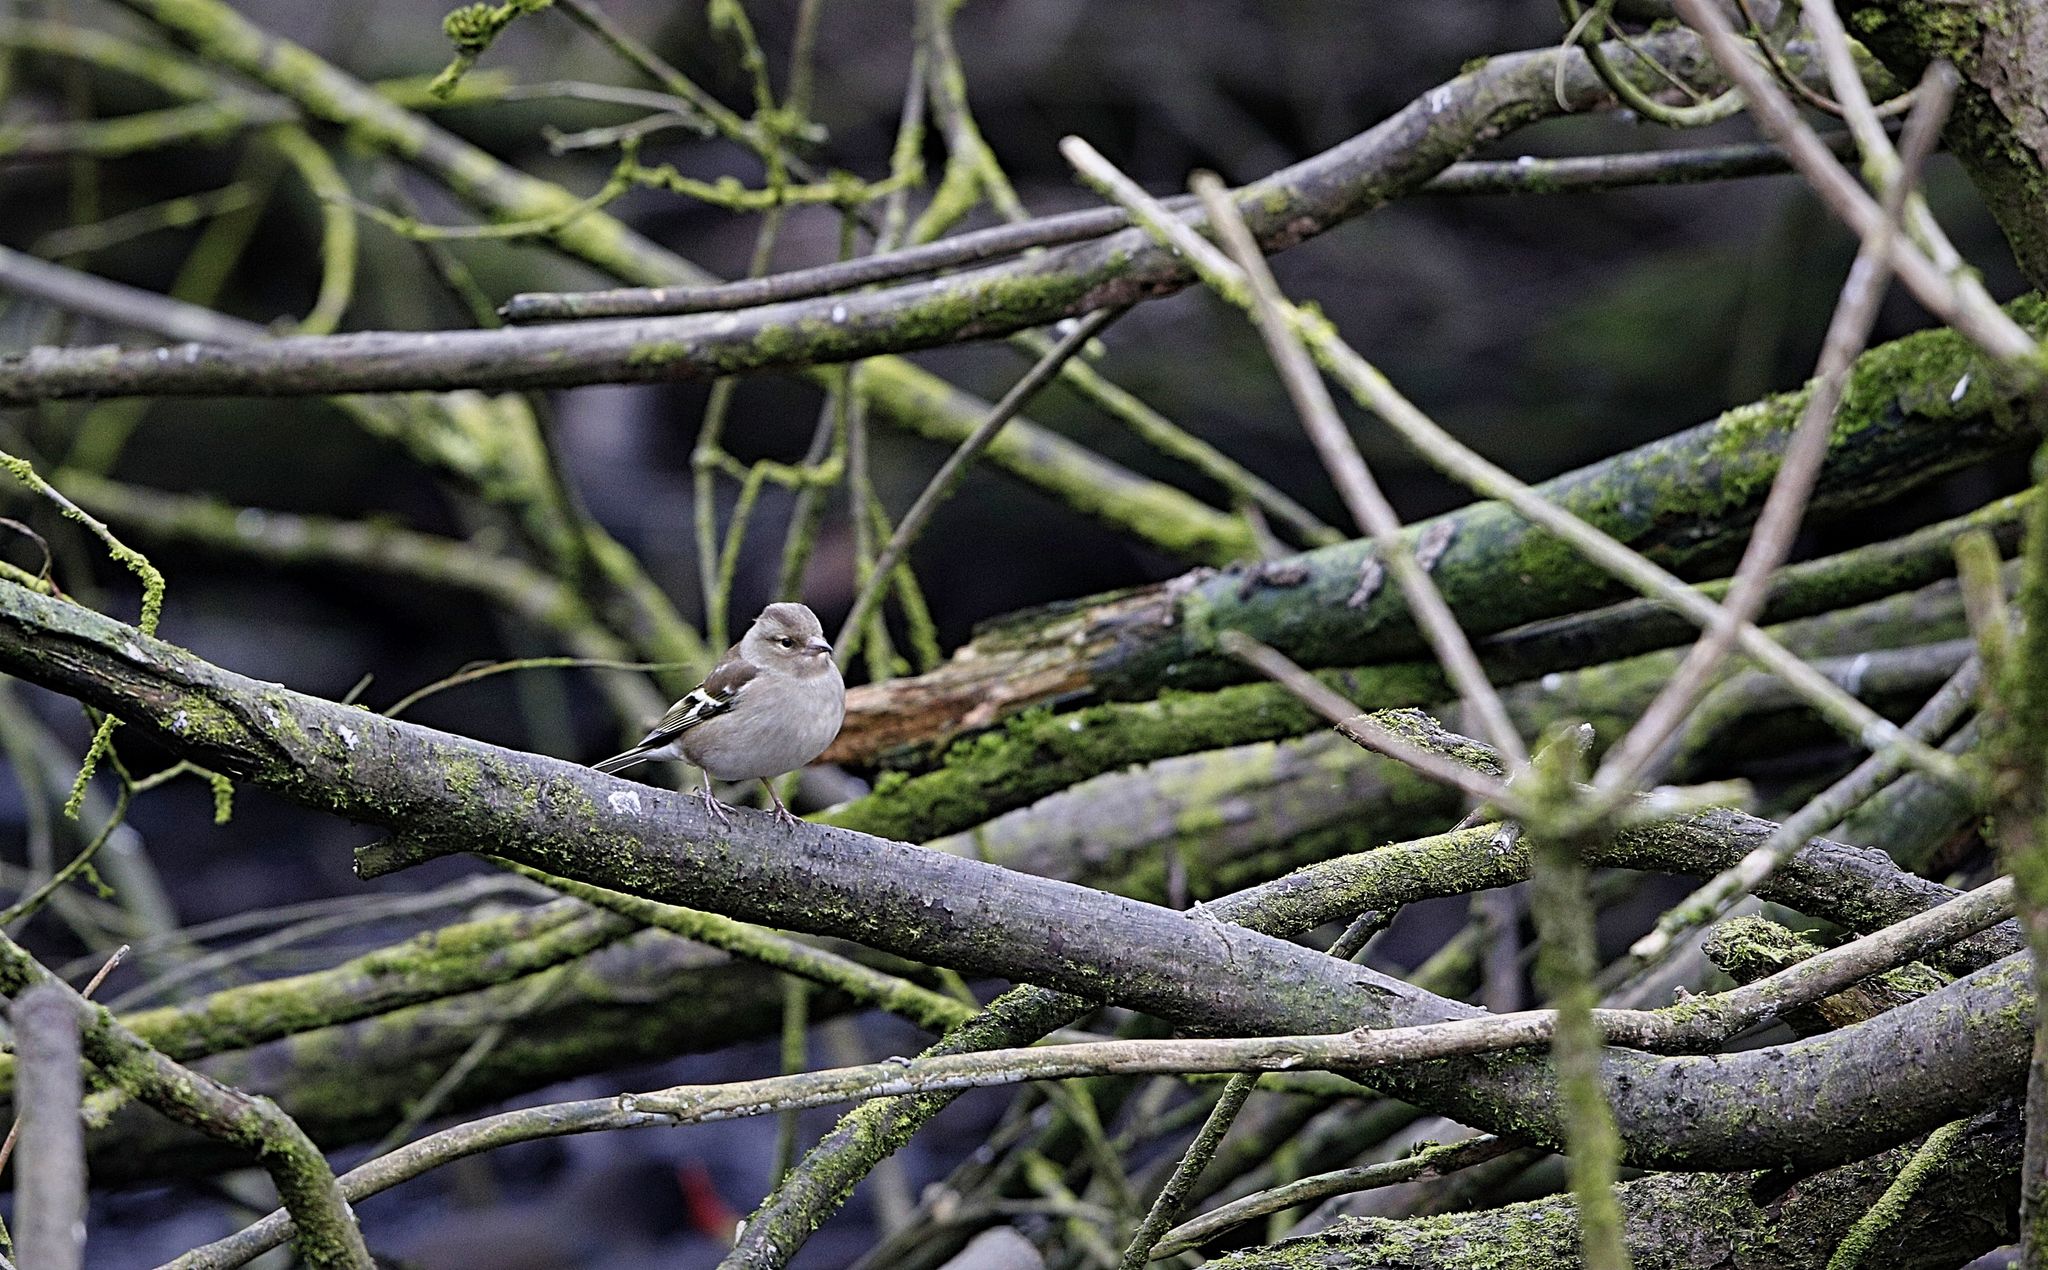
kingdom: Animalia
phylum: Chordata
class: Aves
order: Passeriformes
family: Fringillidae
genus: Fringilla
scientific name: Fringilla coelebs
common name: Common chaffinch
